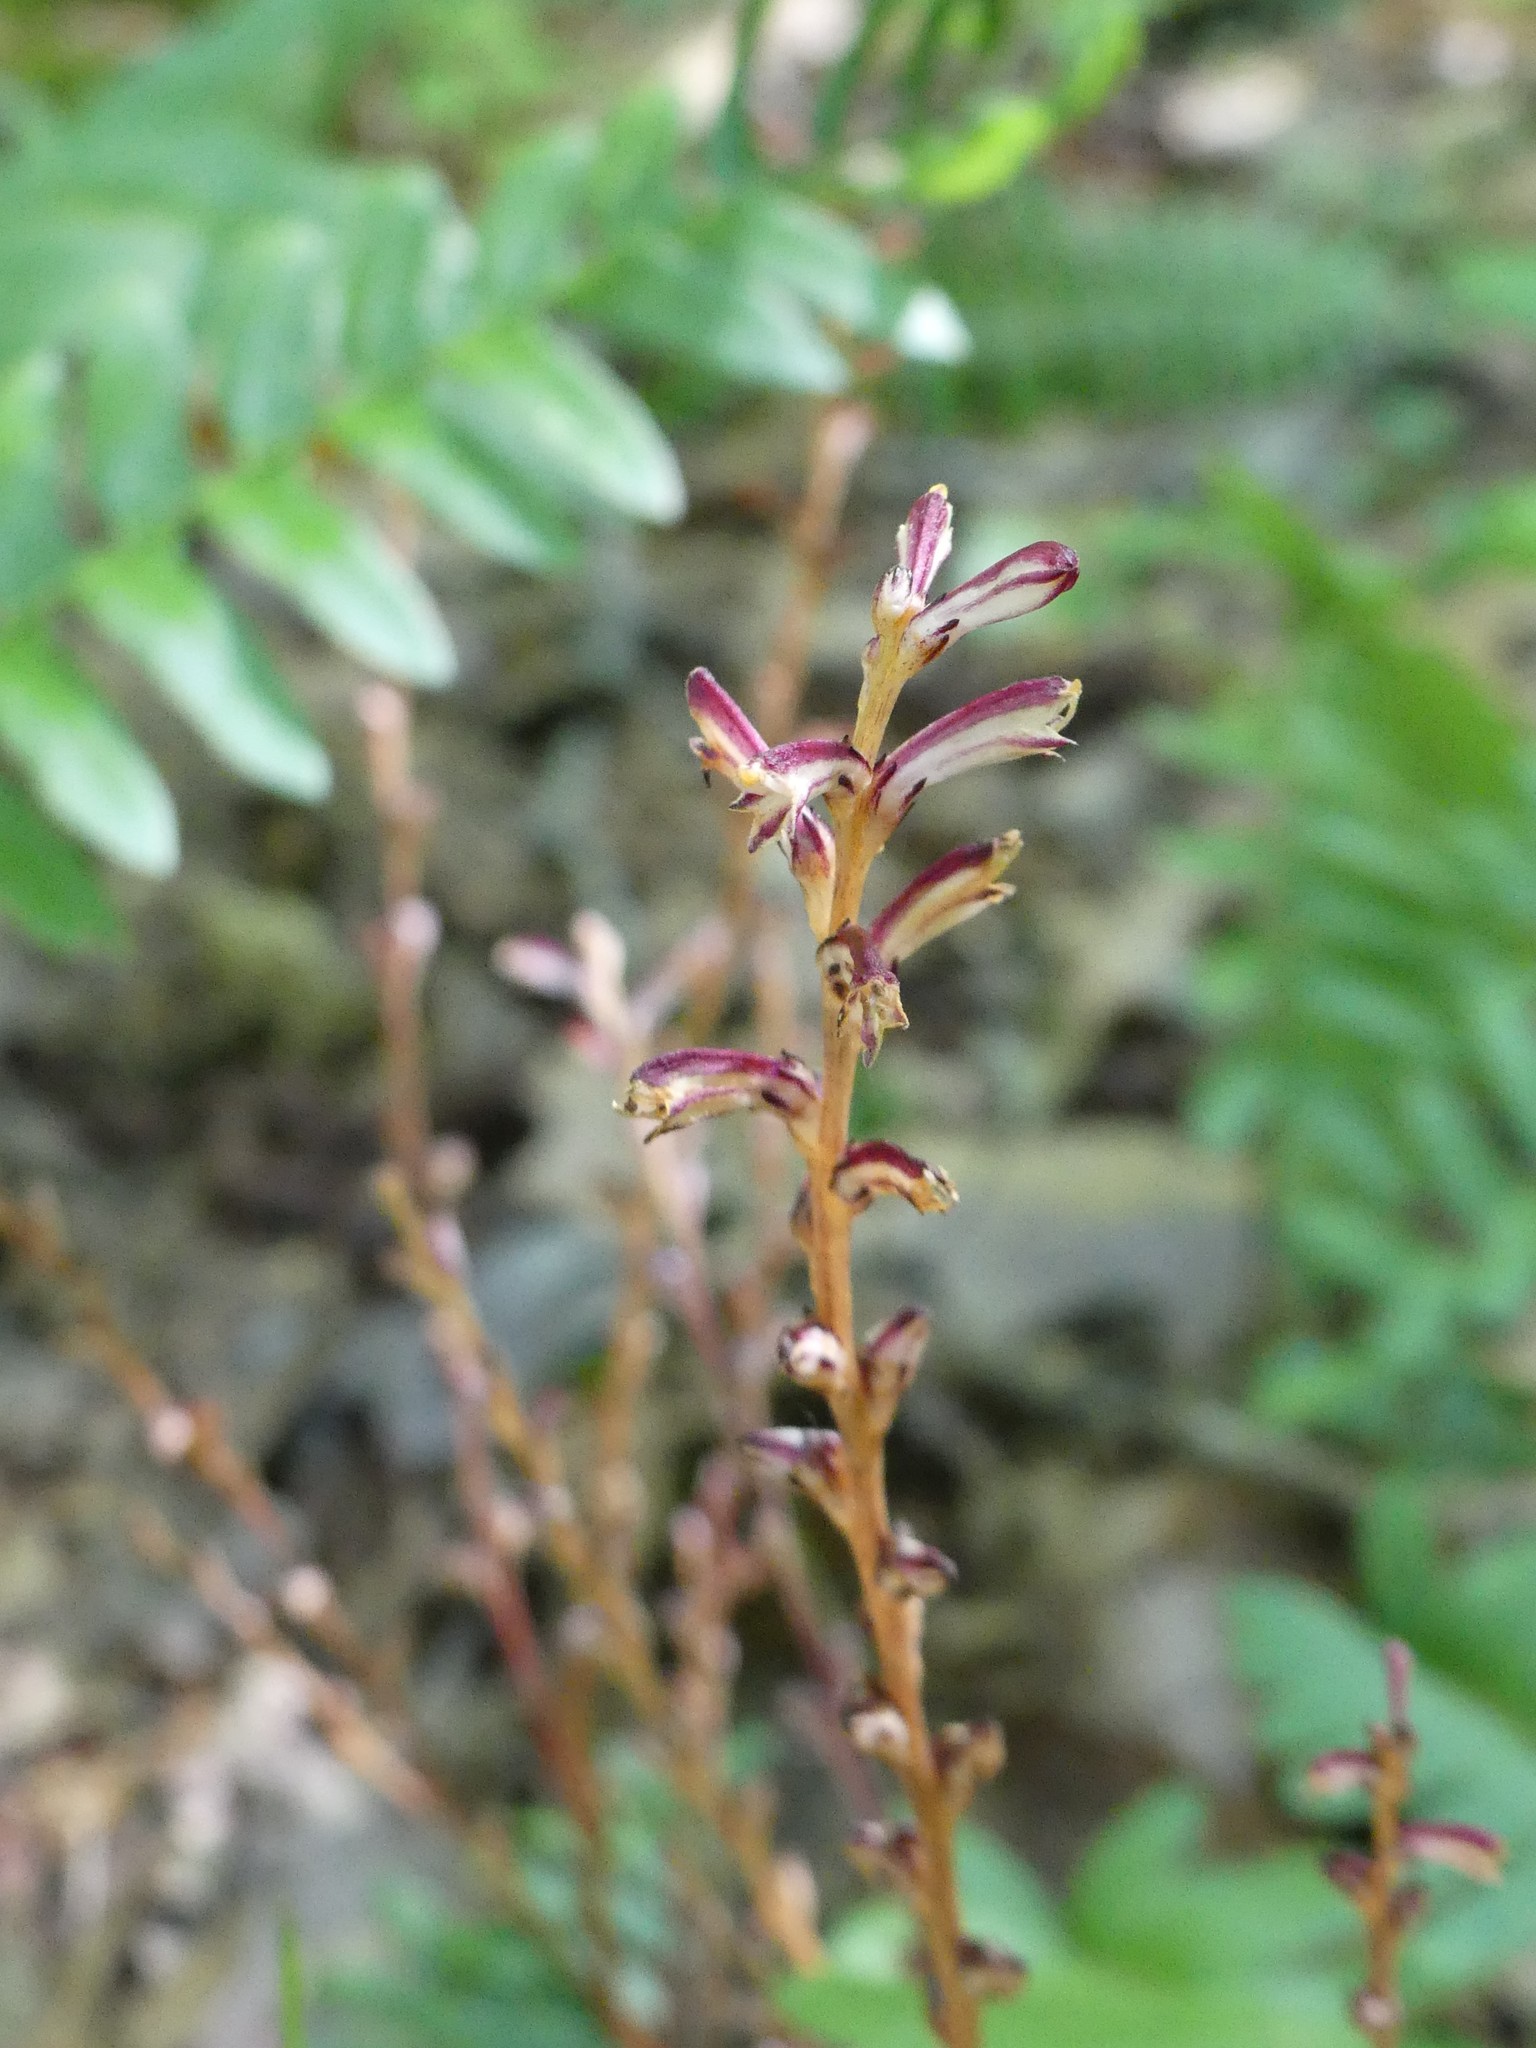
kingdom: Plantae
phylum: Tracheophyta
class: Magnoliopsida
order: Lamiales
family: Orobanchaceae
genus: Epifagus
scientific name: Epifagus virginiana
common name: Beechdrops
